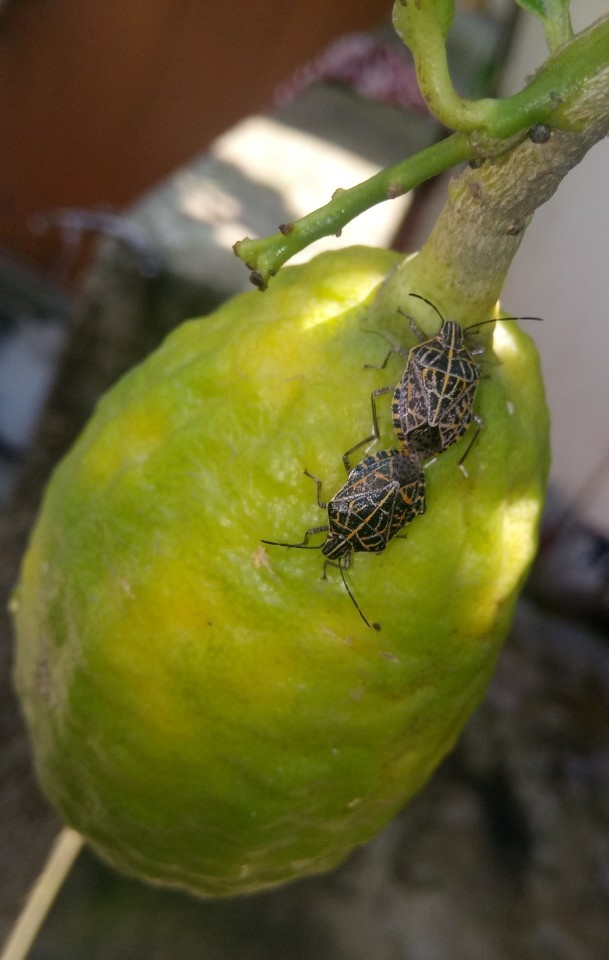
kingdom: Animalia
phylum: Arthropoda
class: Insecta
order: Hemiptera
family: Pentatomidae
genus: Cappaea
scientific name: Cappaea taprobanensis
